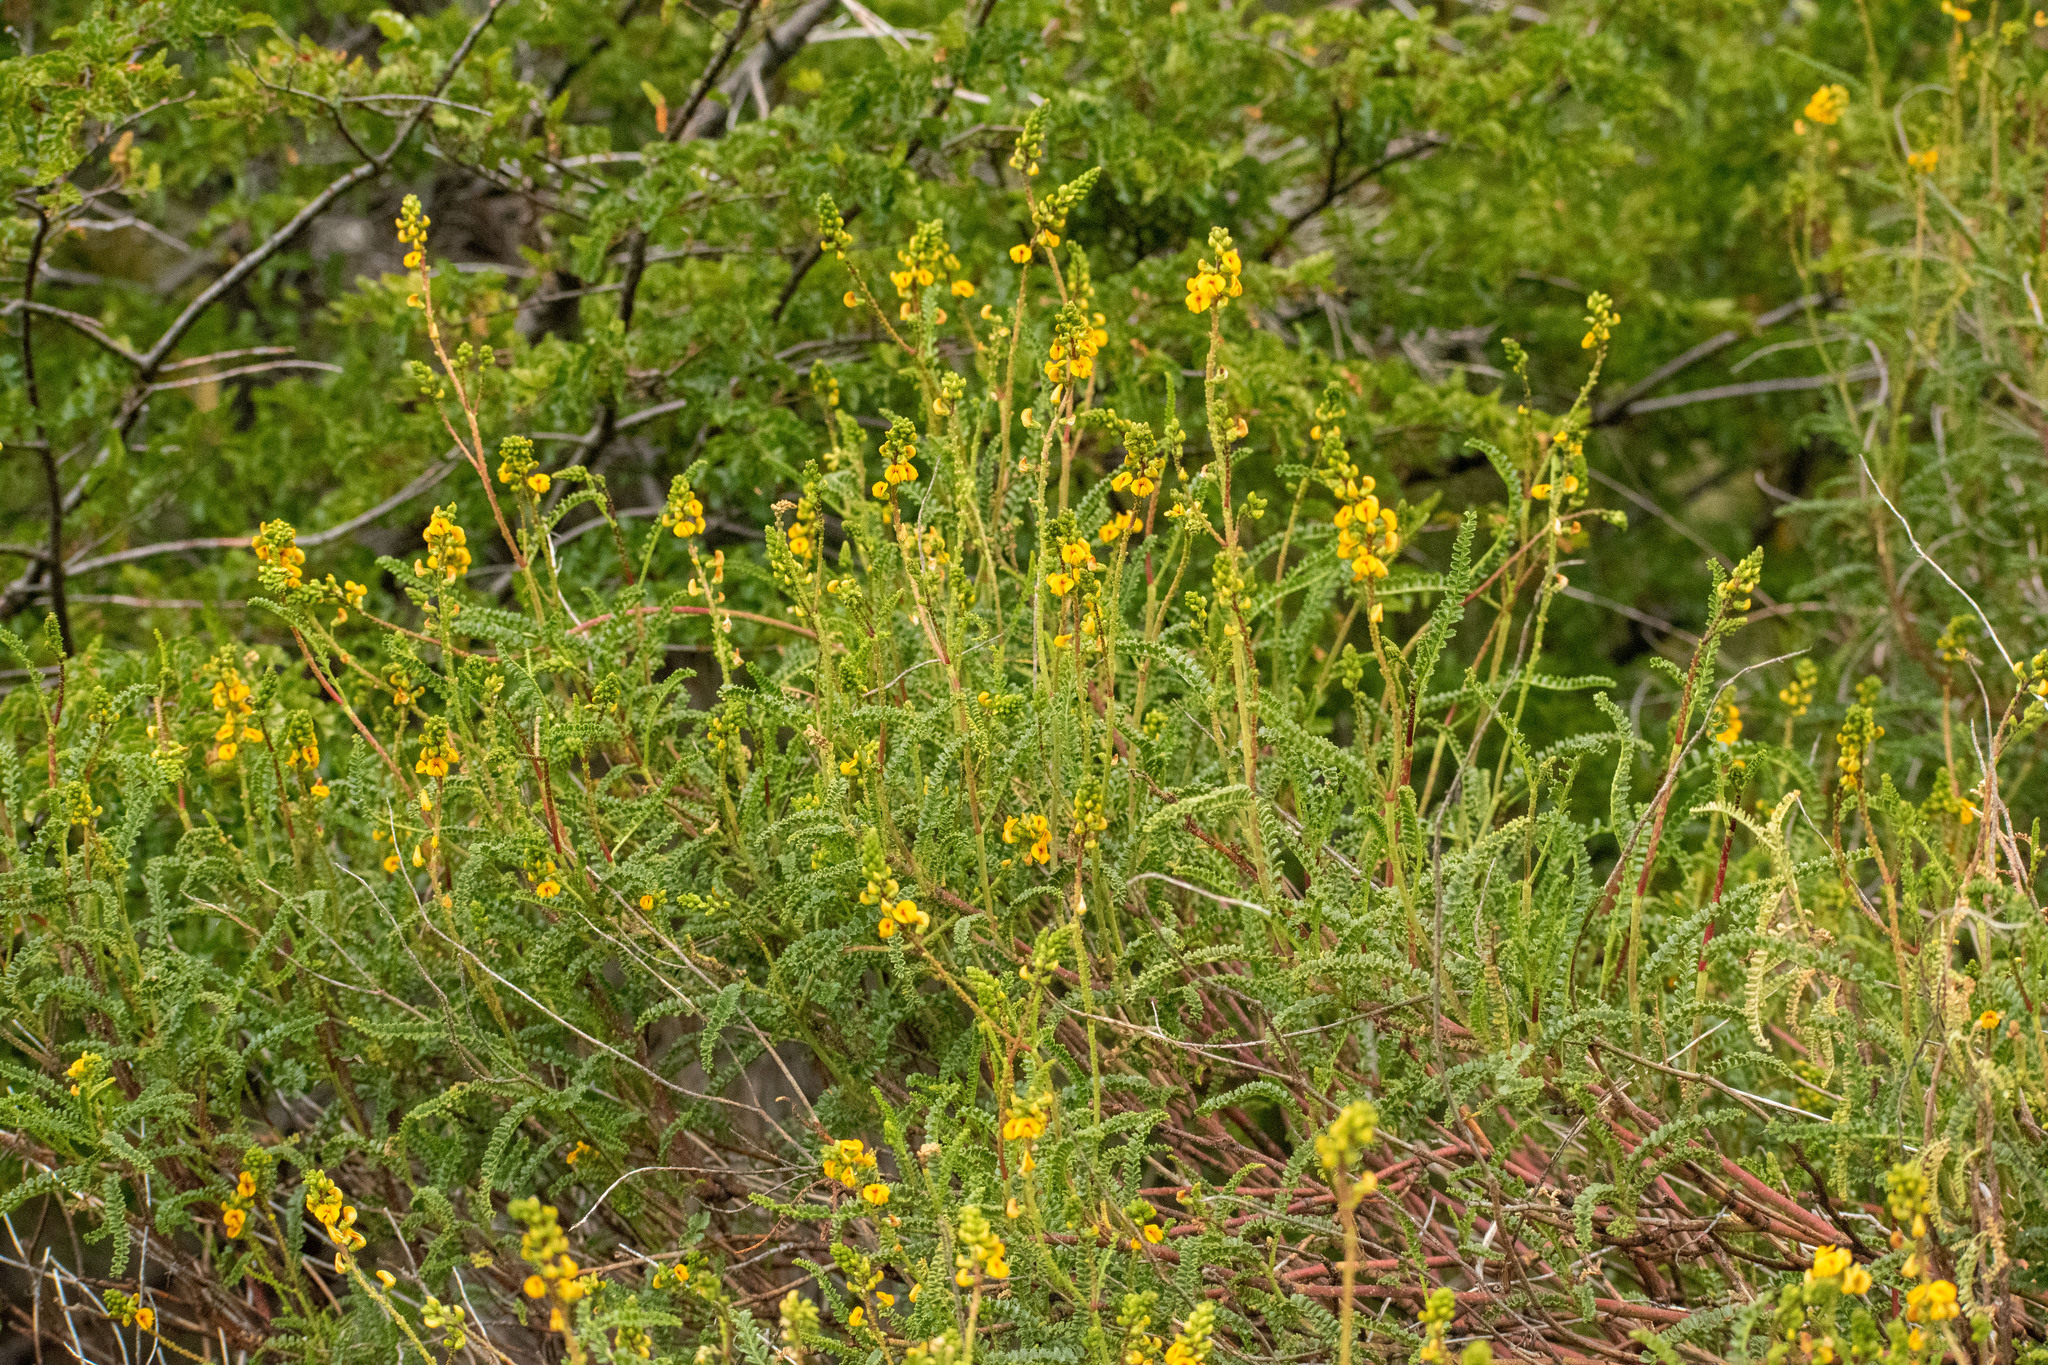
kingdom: Plantae
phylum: Tracheophyta
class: Magnoliopsida
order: Fabales
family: Fabaceae
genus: Adesmia
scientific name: Adesmia boronioides
